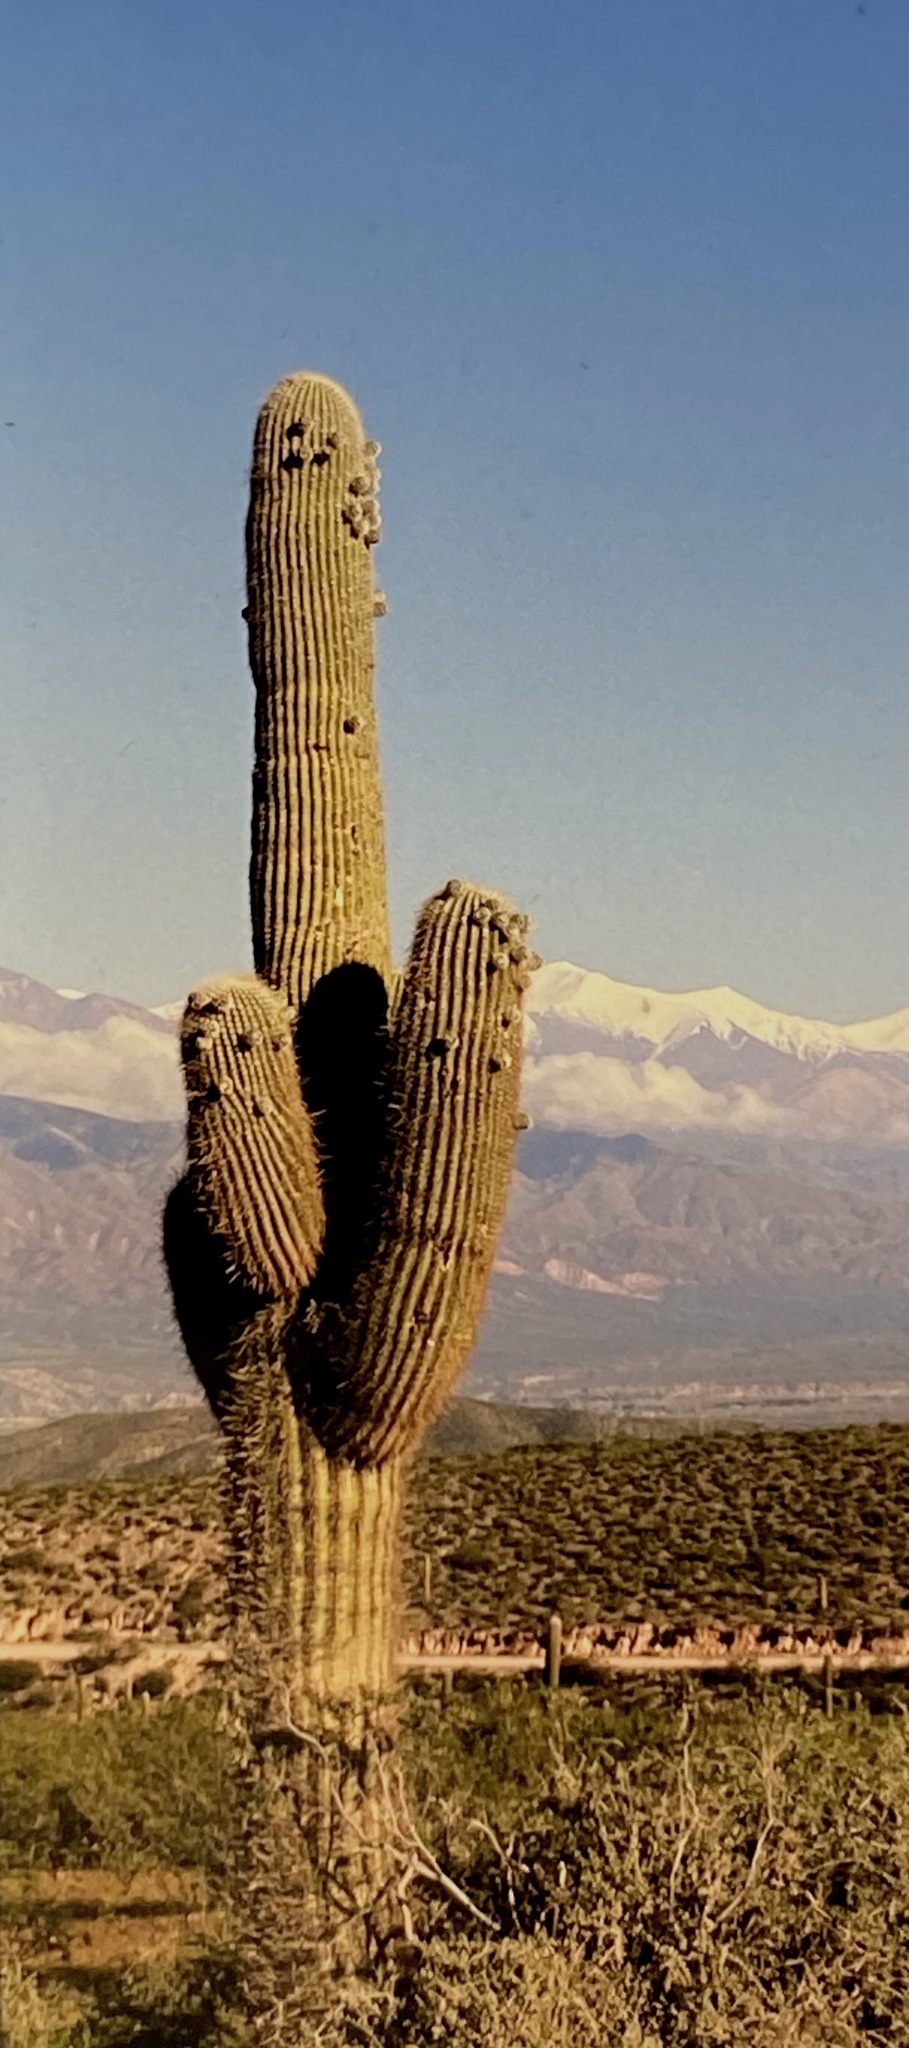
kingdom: Plantae
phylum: Tracheophyta
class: Magnoliopsida
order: Caryophyllales
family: Cactaceae
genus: Leucostele
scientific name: Leucostele atacamensis
